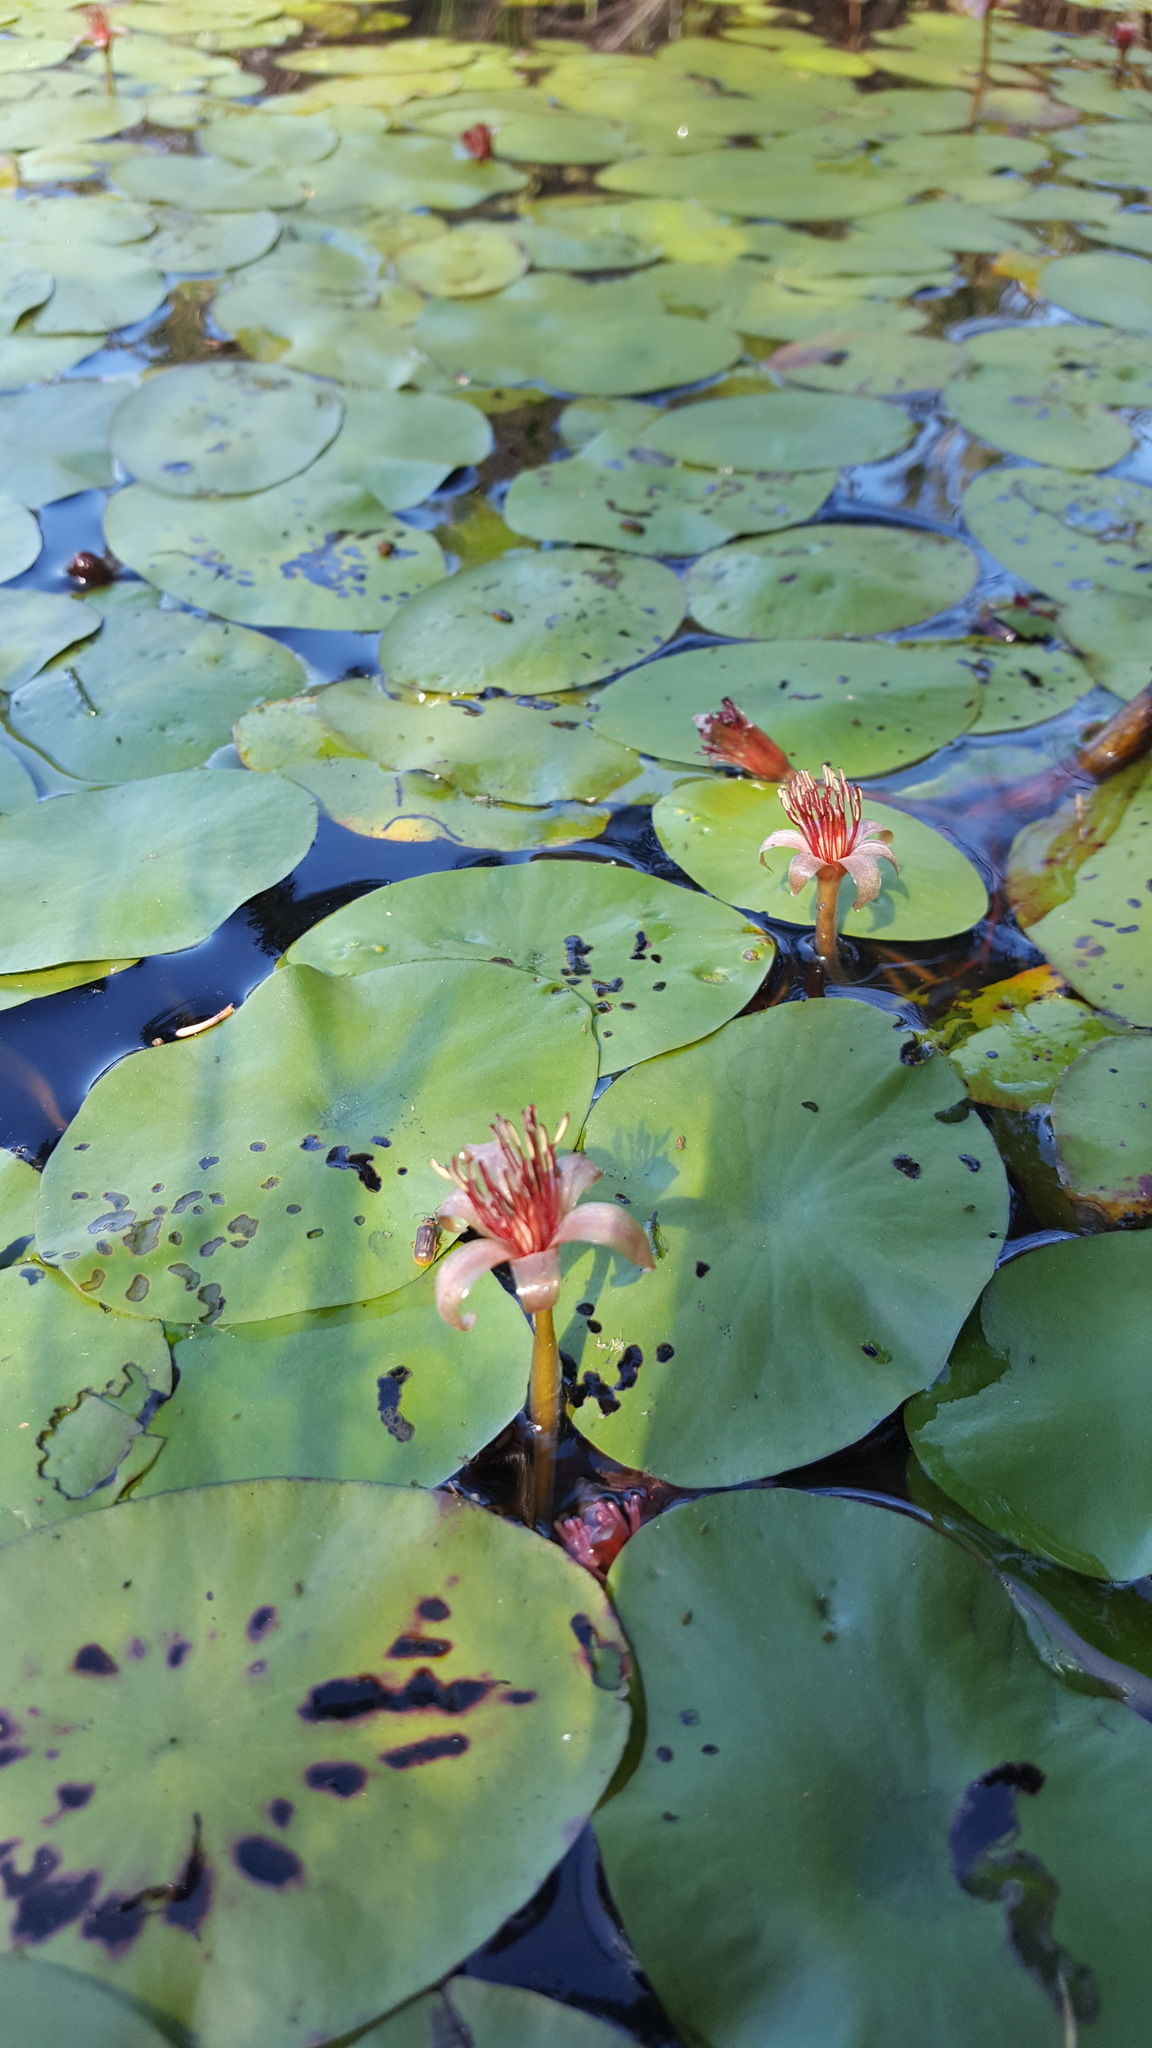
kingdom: Plantae
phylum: Tracheophyta
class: Magnoliopsida
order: Nymphaeales
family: Cabombaceae
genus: Brasenia
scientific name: Brasenia schreberi
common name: Water-shield
